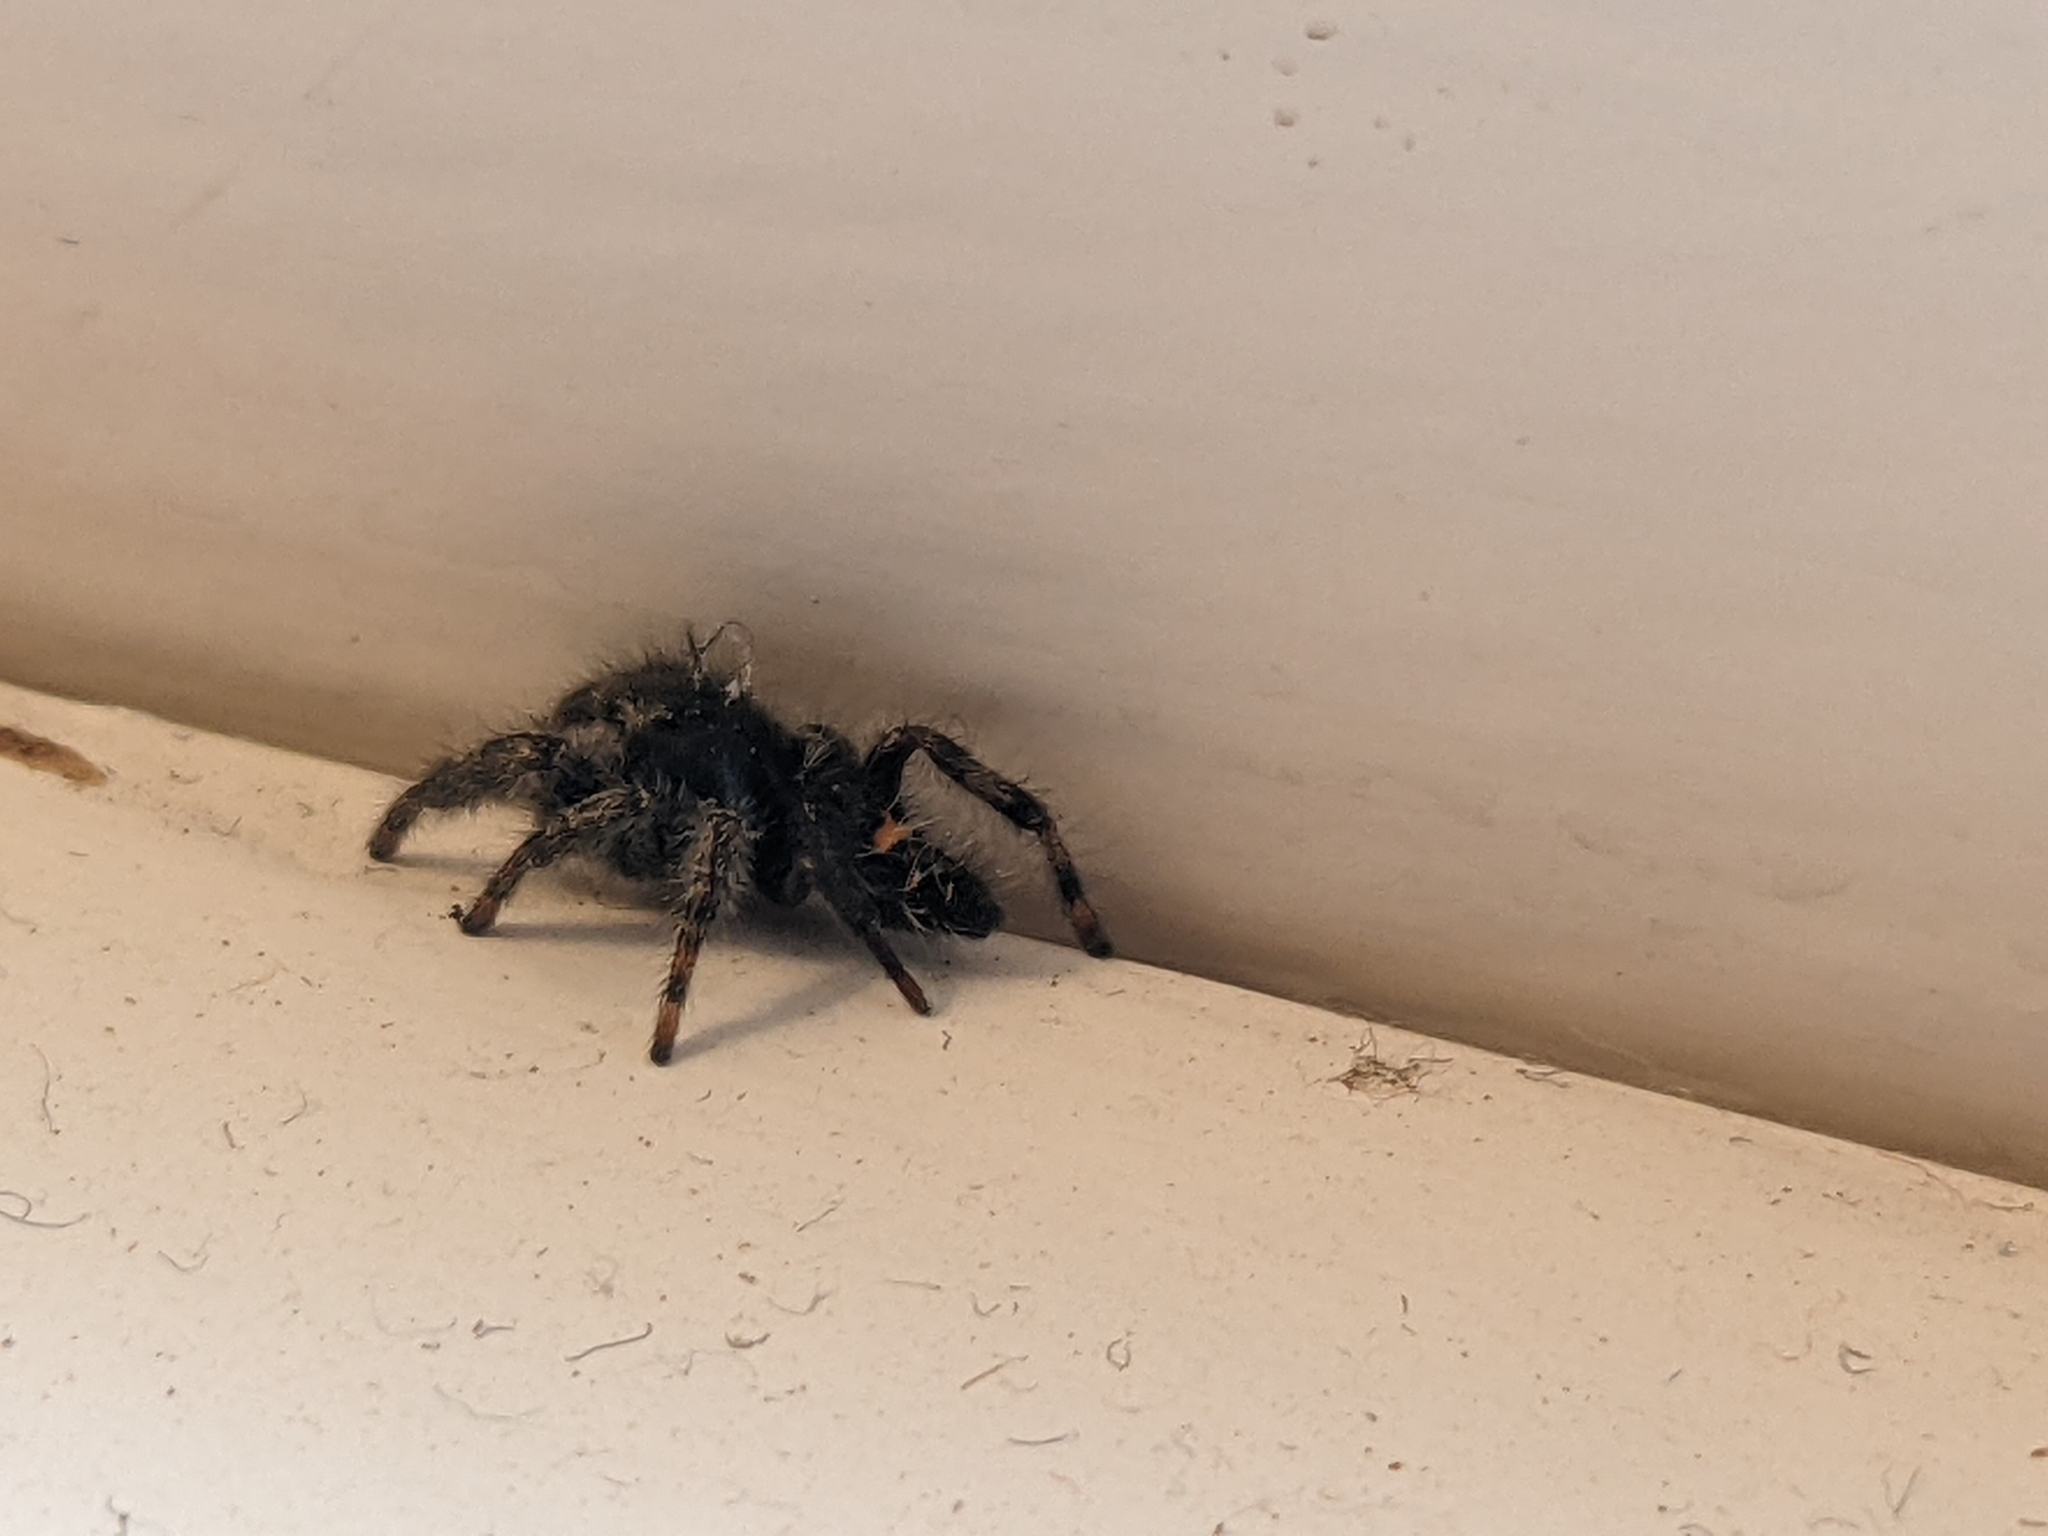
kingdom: Animalia
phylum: Arthropoda
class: Arachnida
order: Araneae
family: Salticidae
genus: Phidippus
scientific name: Phidippus audax
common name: Bold jumper
